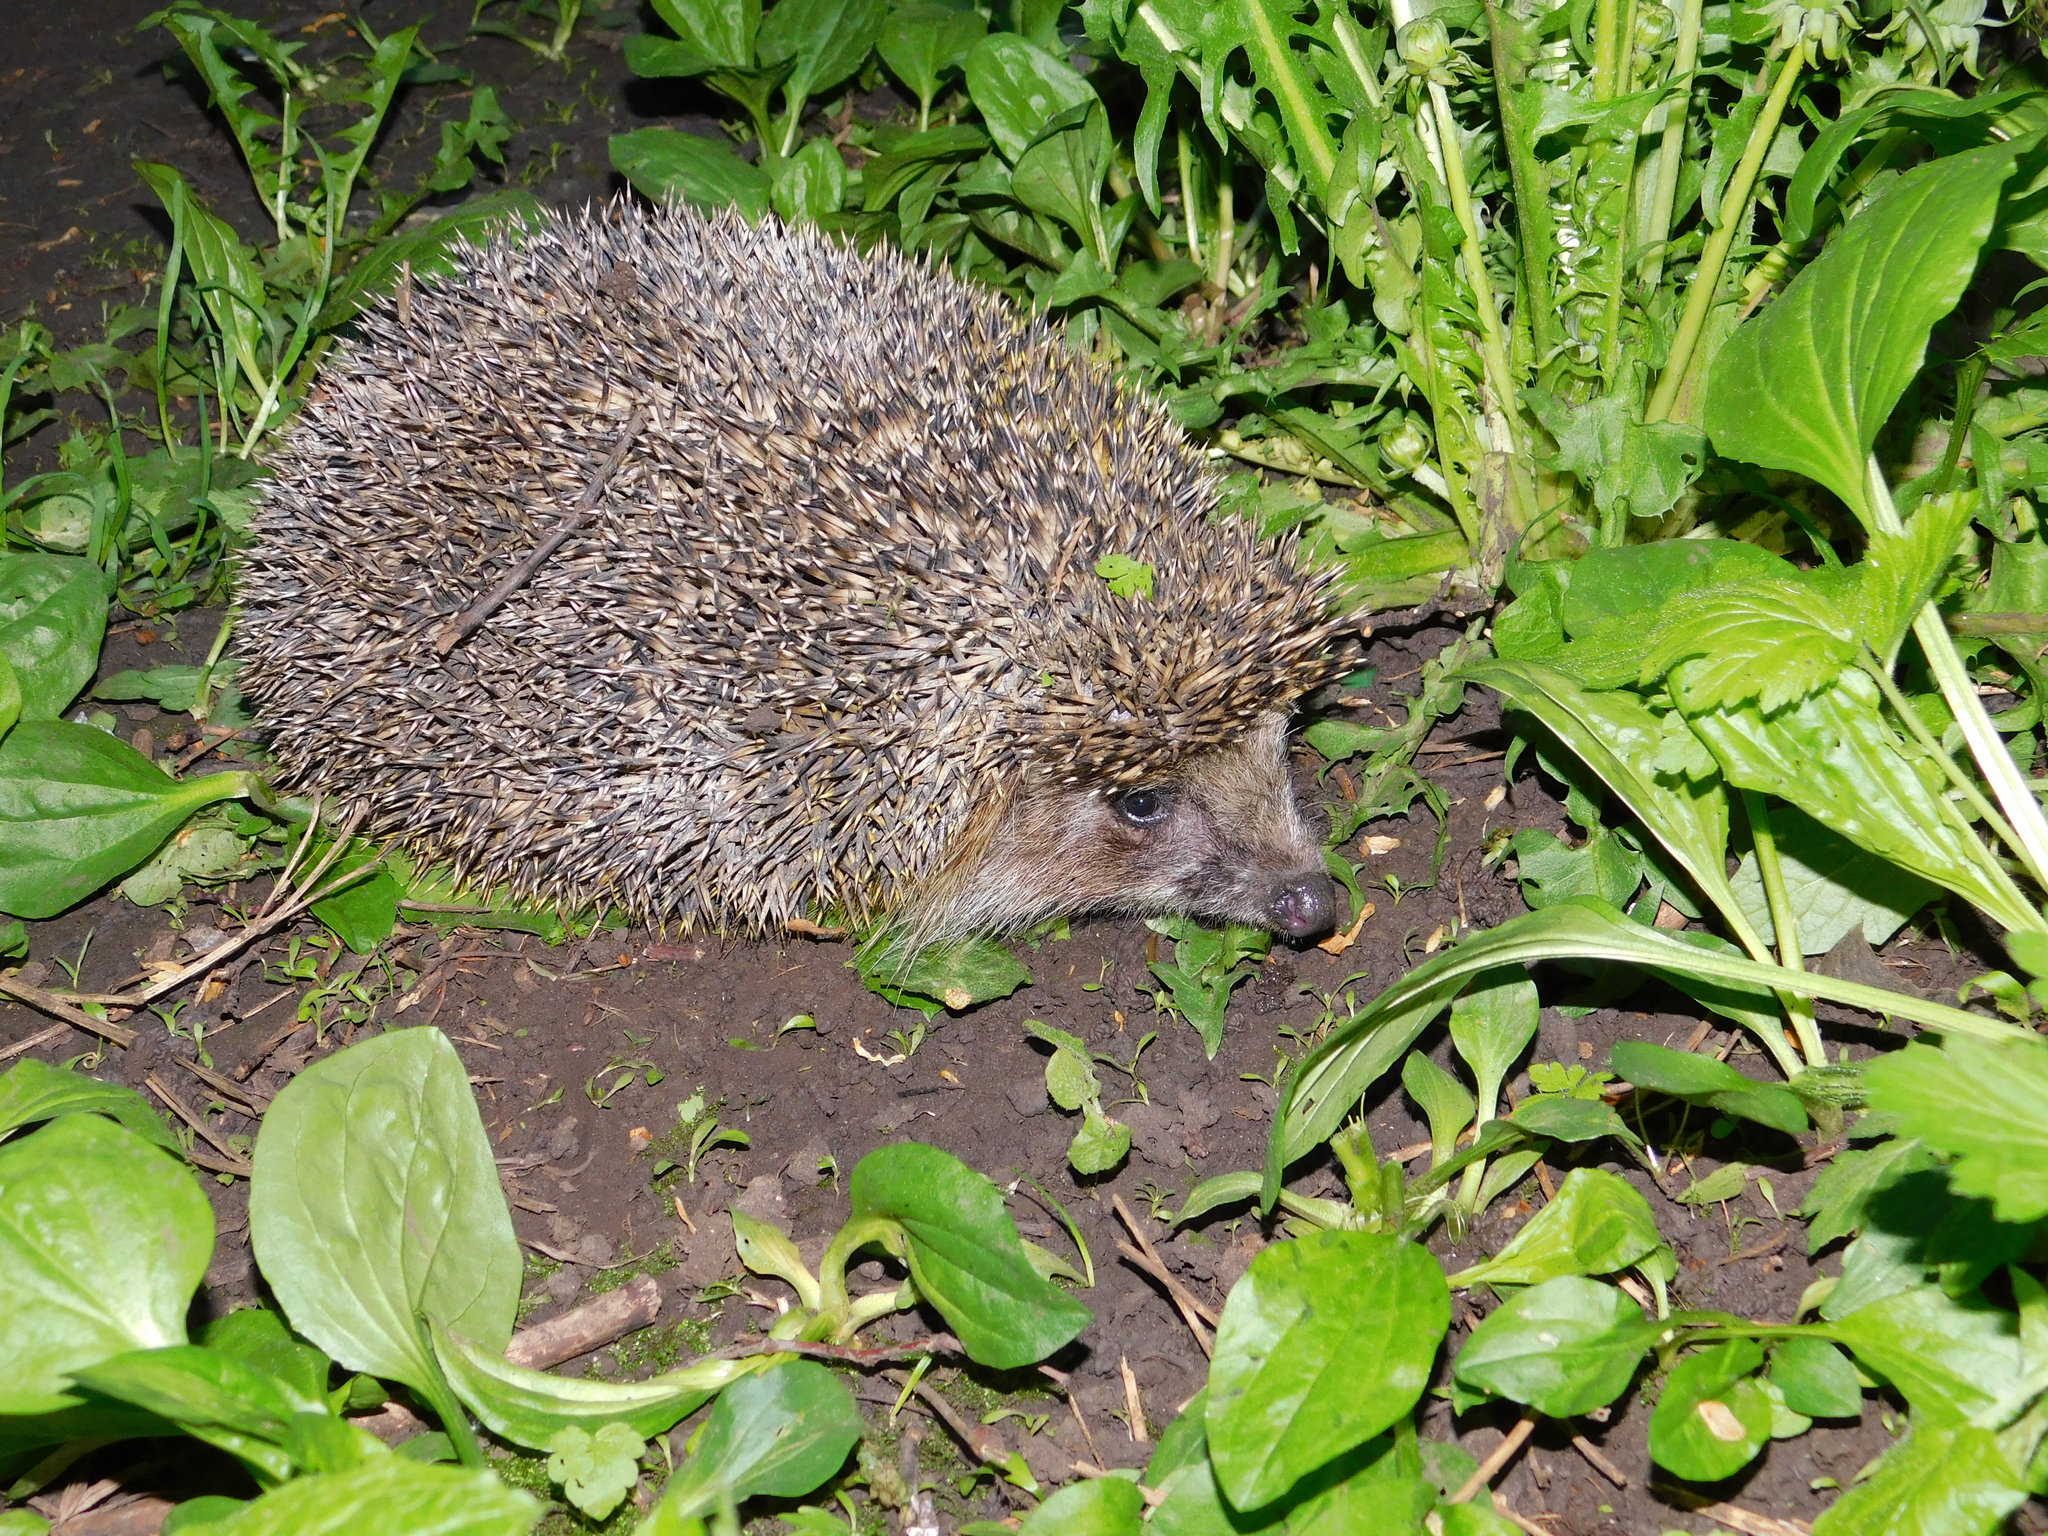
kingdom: Animalia
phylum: Chordata
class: Mammalia
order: Erinaceomorpha
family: Erinaceidae
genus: Erinaceus
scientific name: Erinaceus roumanicus
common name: Northern white-breasted hedgehog
